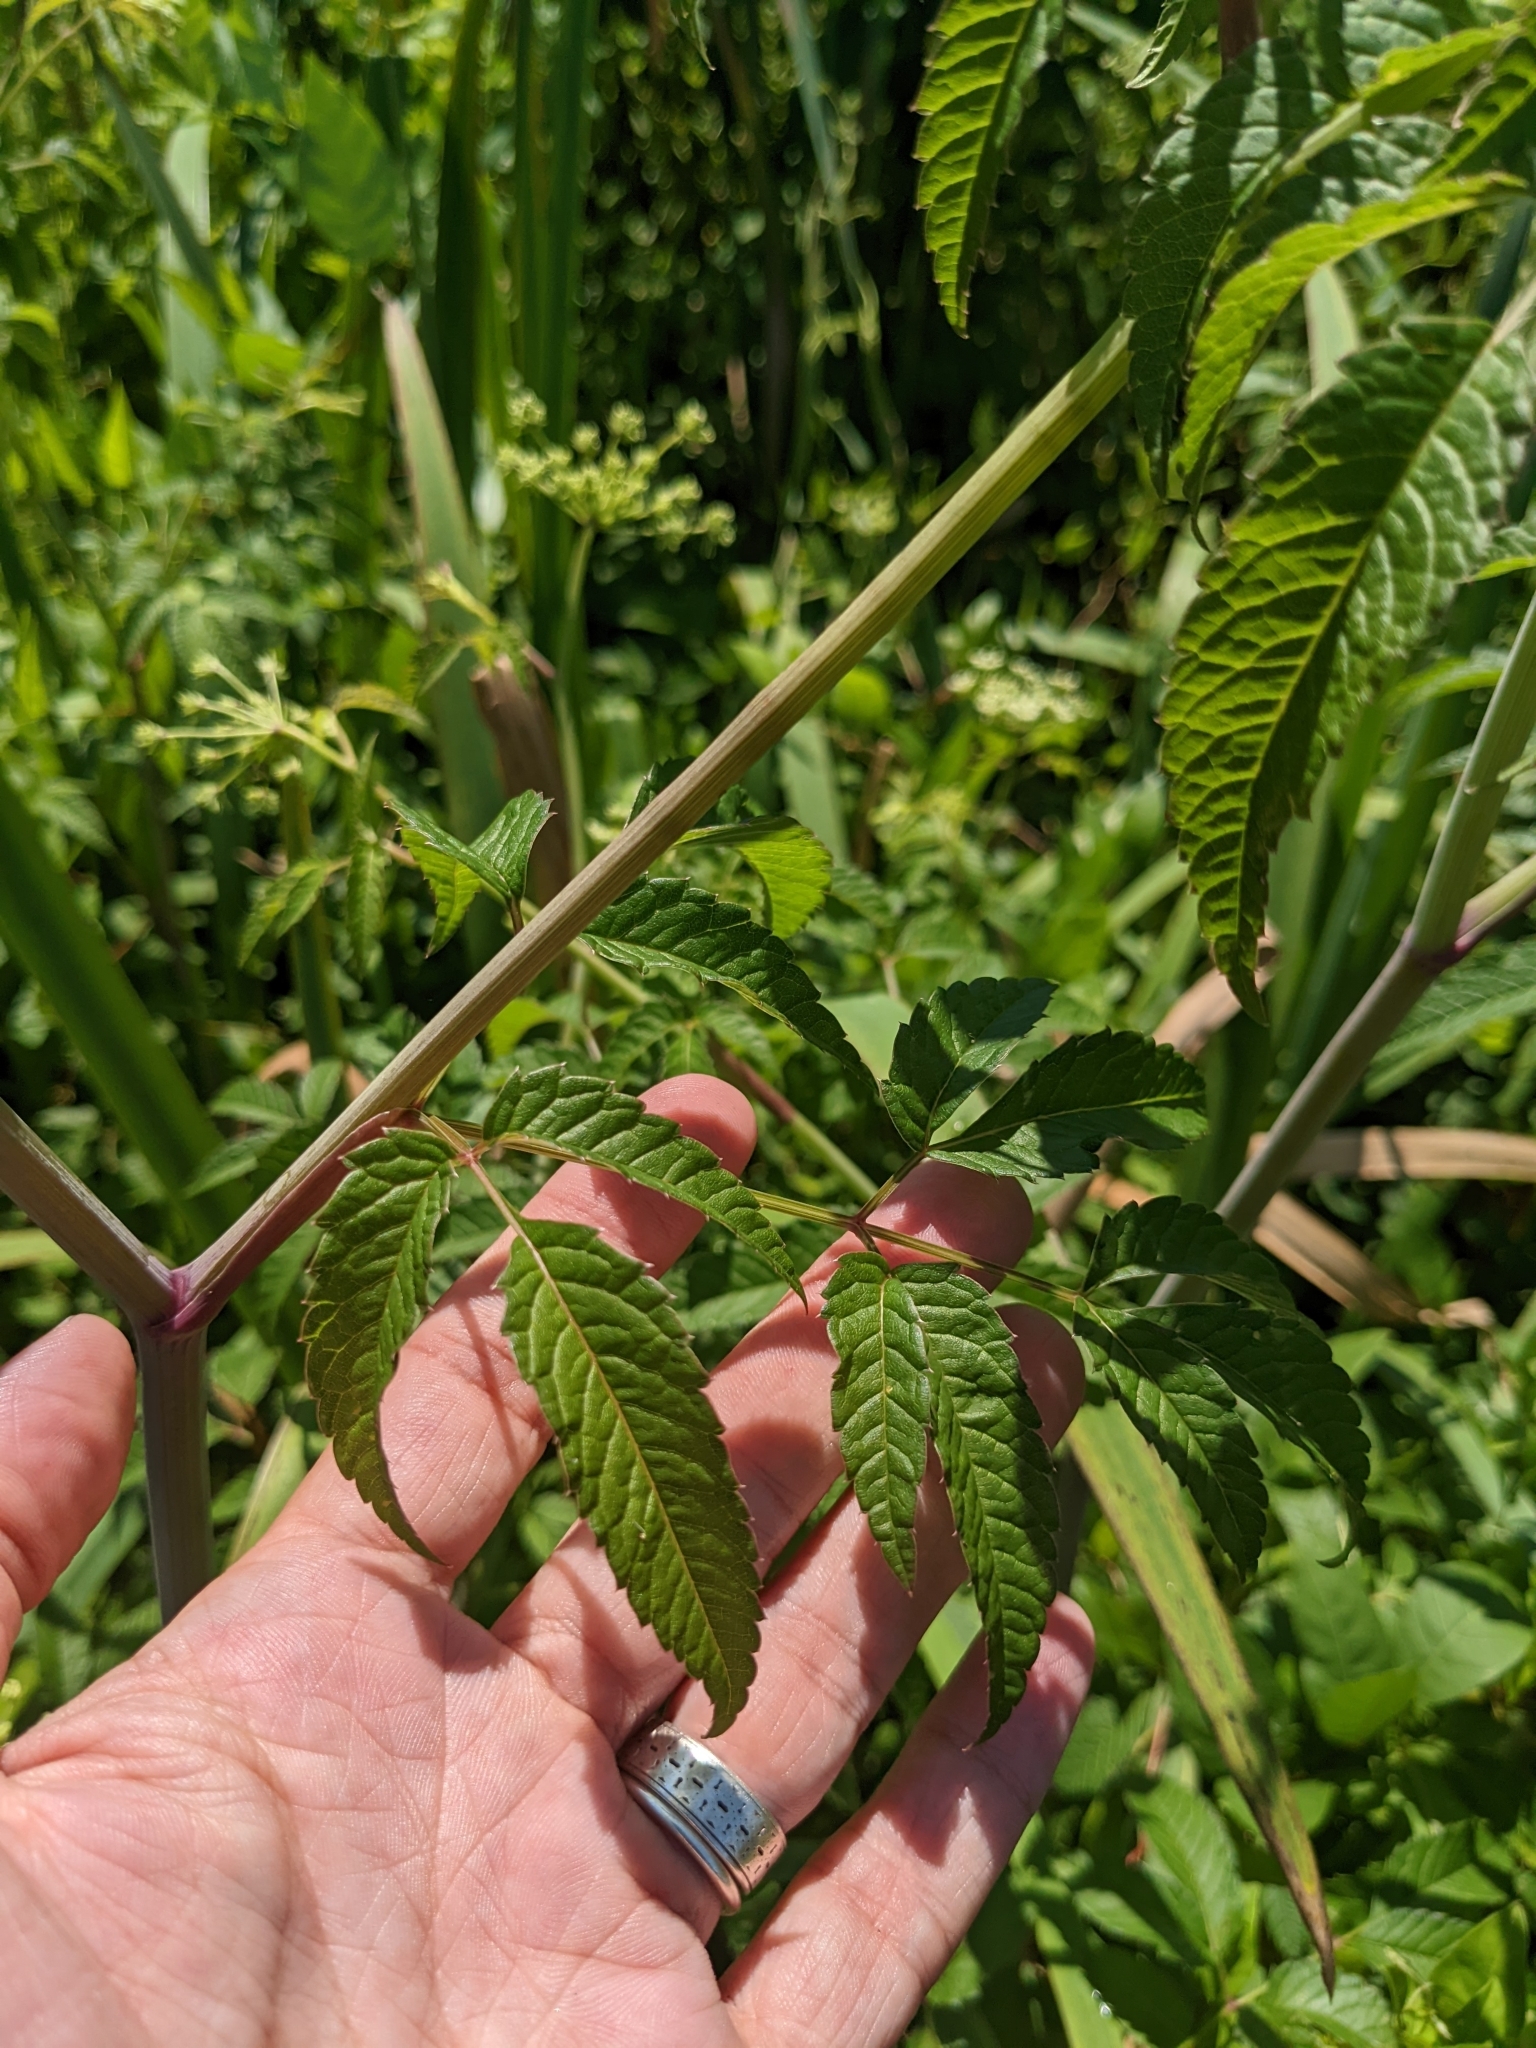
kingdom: Plantae
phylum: Tracheophyta
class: Magnoliopsida
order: Apiales
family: Apiaceae
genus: Cicuta
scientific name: Cicuta maculata
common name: Spotted cowbane
